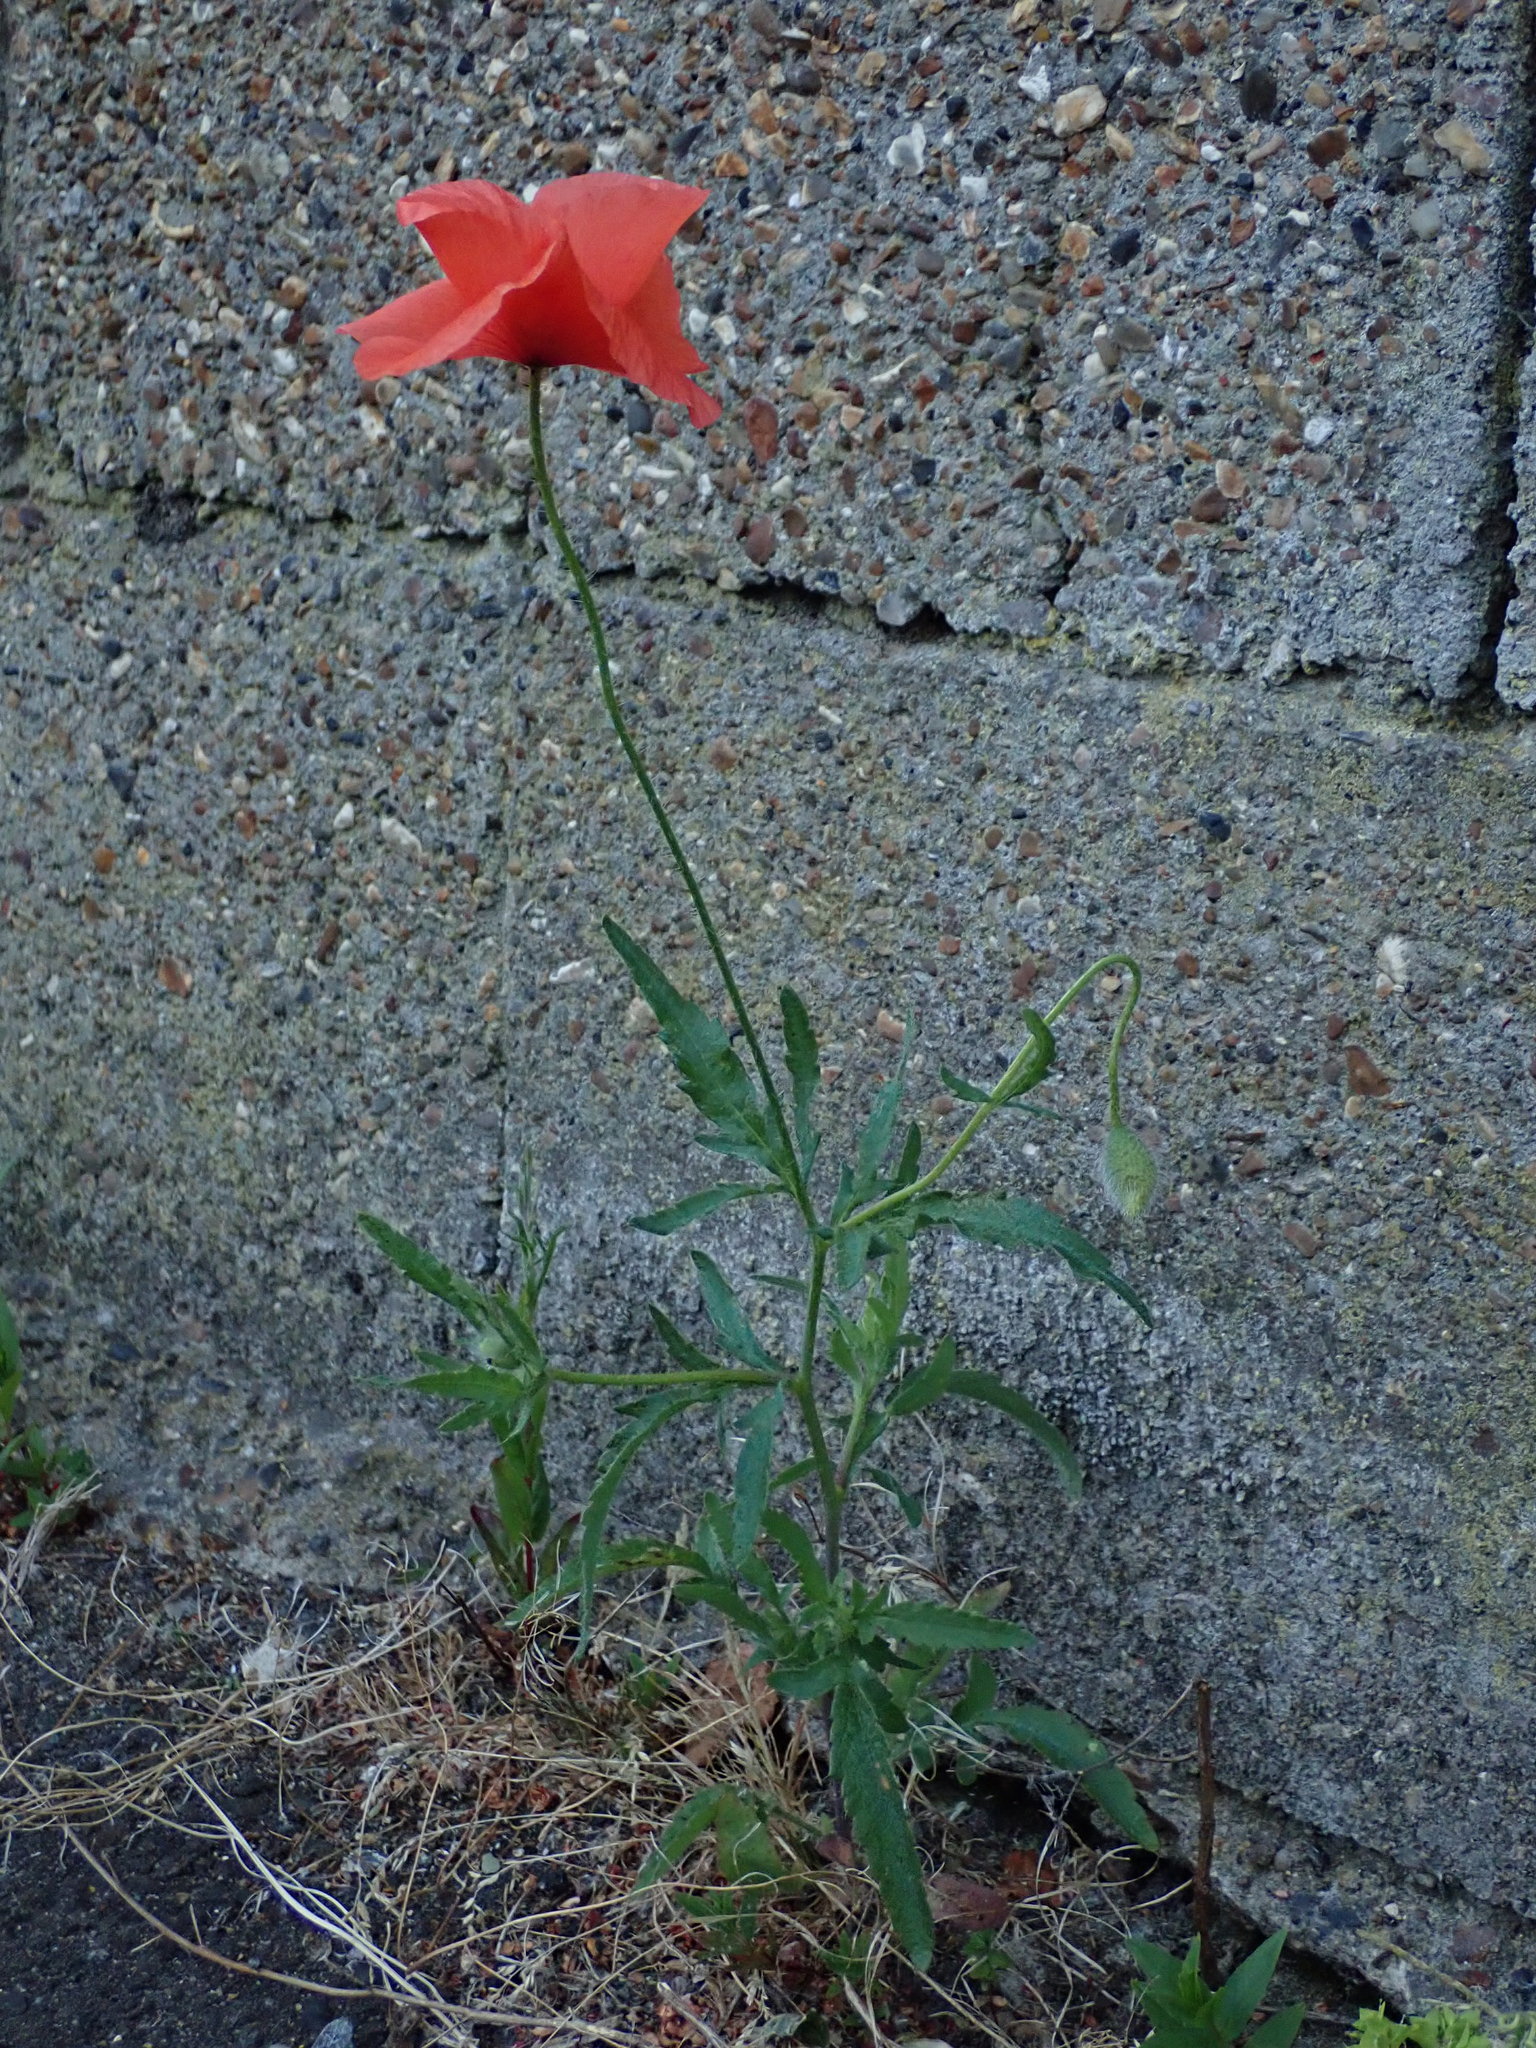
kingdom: Plantae
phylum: Tracheophyta
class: Magnoliopsida
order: Ranunculales
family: Papaveraceae
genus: Papaver
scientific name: Papaver rhoeas
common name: Corn poppy
